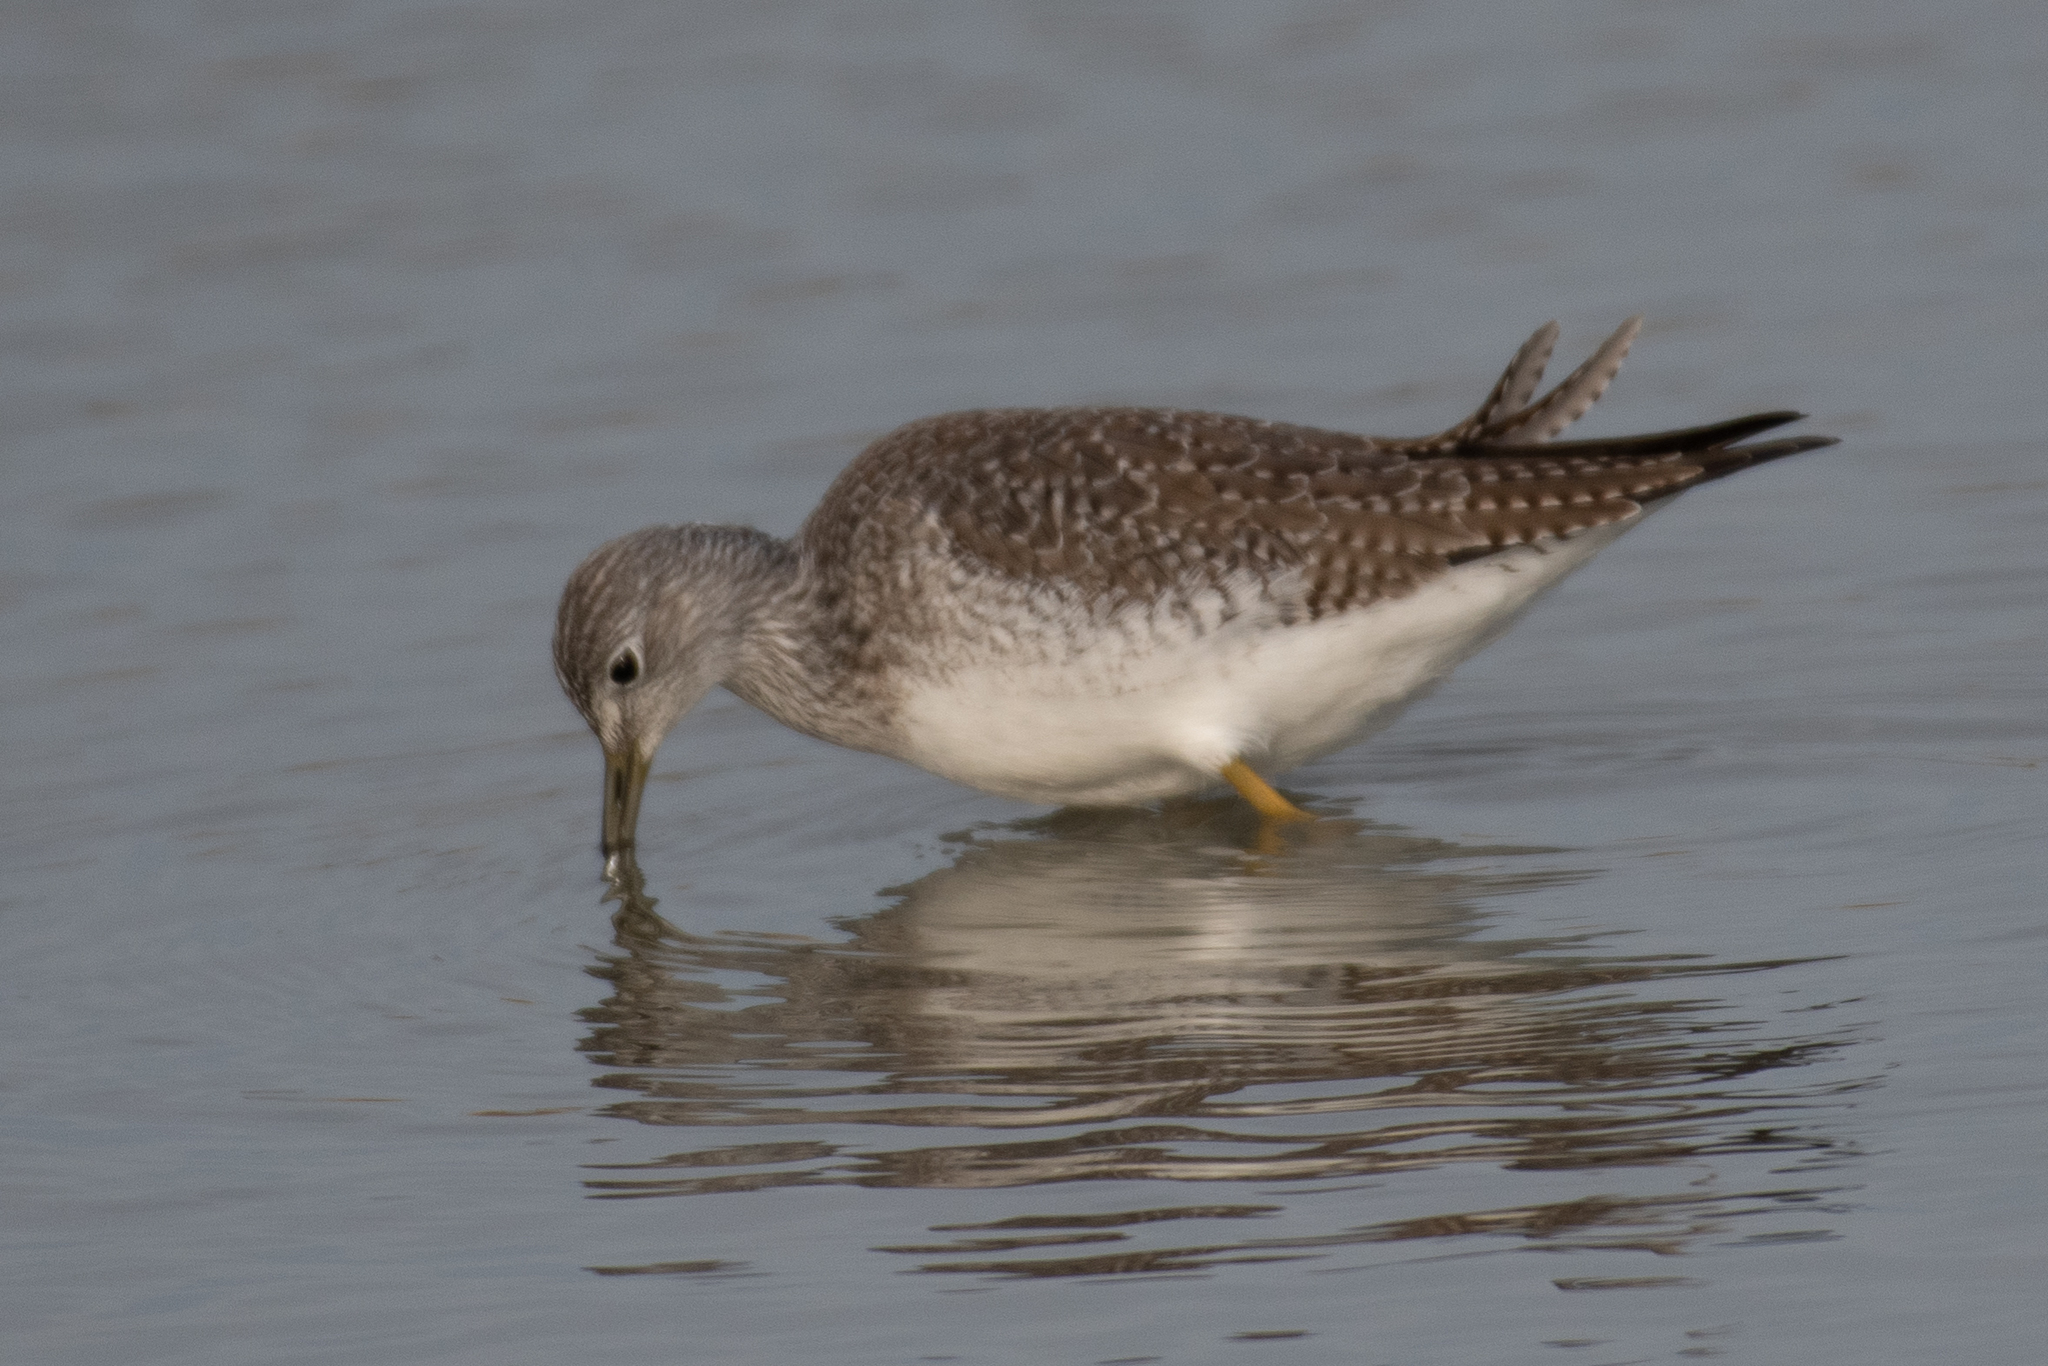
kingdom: Animalia
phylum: Chordata
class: Aves
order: Charadriiformes
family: Scolopacidae
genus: Tringa
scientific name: Tringa melanoleuca
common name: Greater yellowlegs
